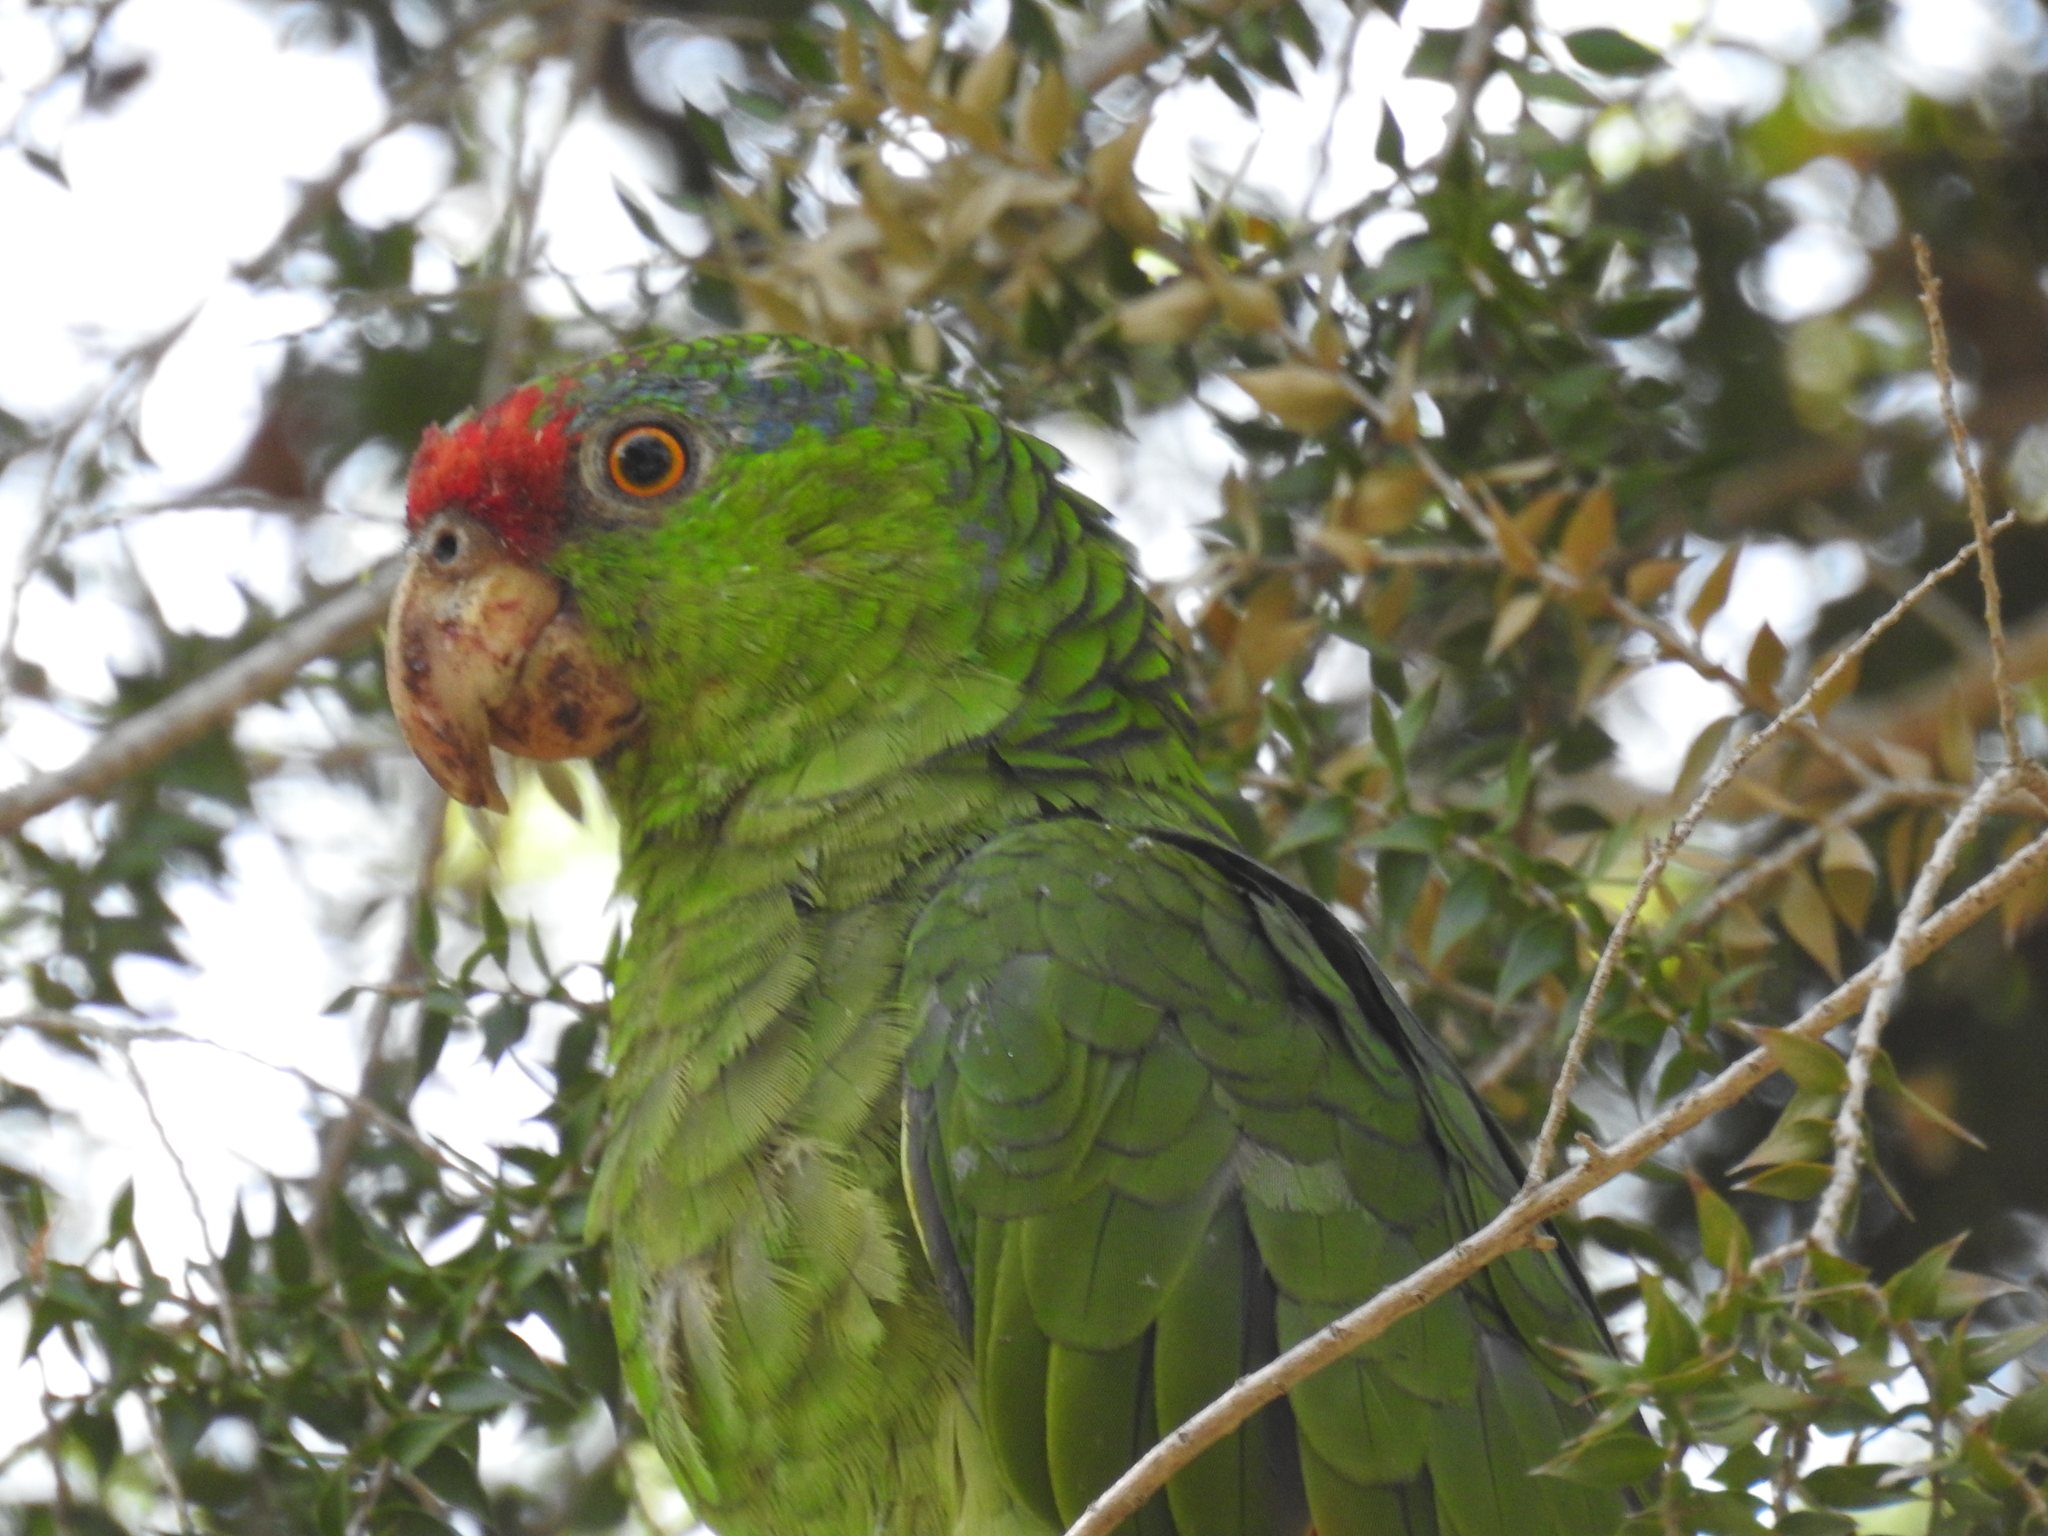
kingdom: Animalia
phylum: Chordata
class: Aves
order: Psittaciformes
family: Psittacidae
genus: Amazona
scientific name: Amazona viridigenalis
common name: Red-crowned amazon
